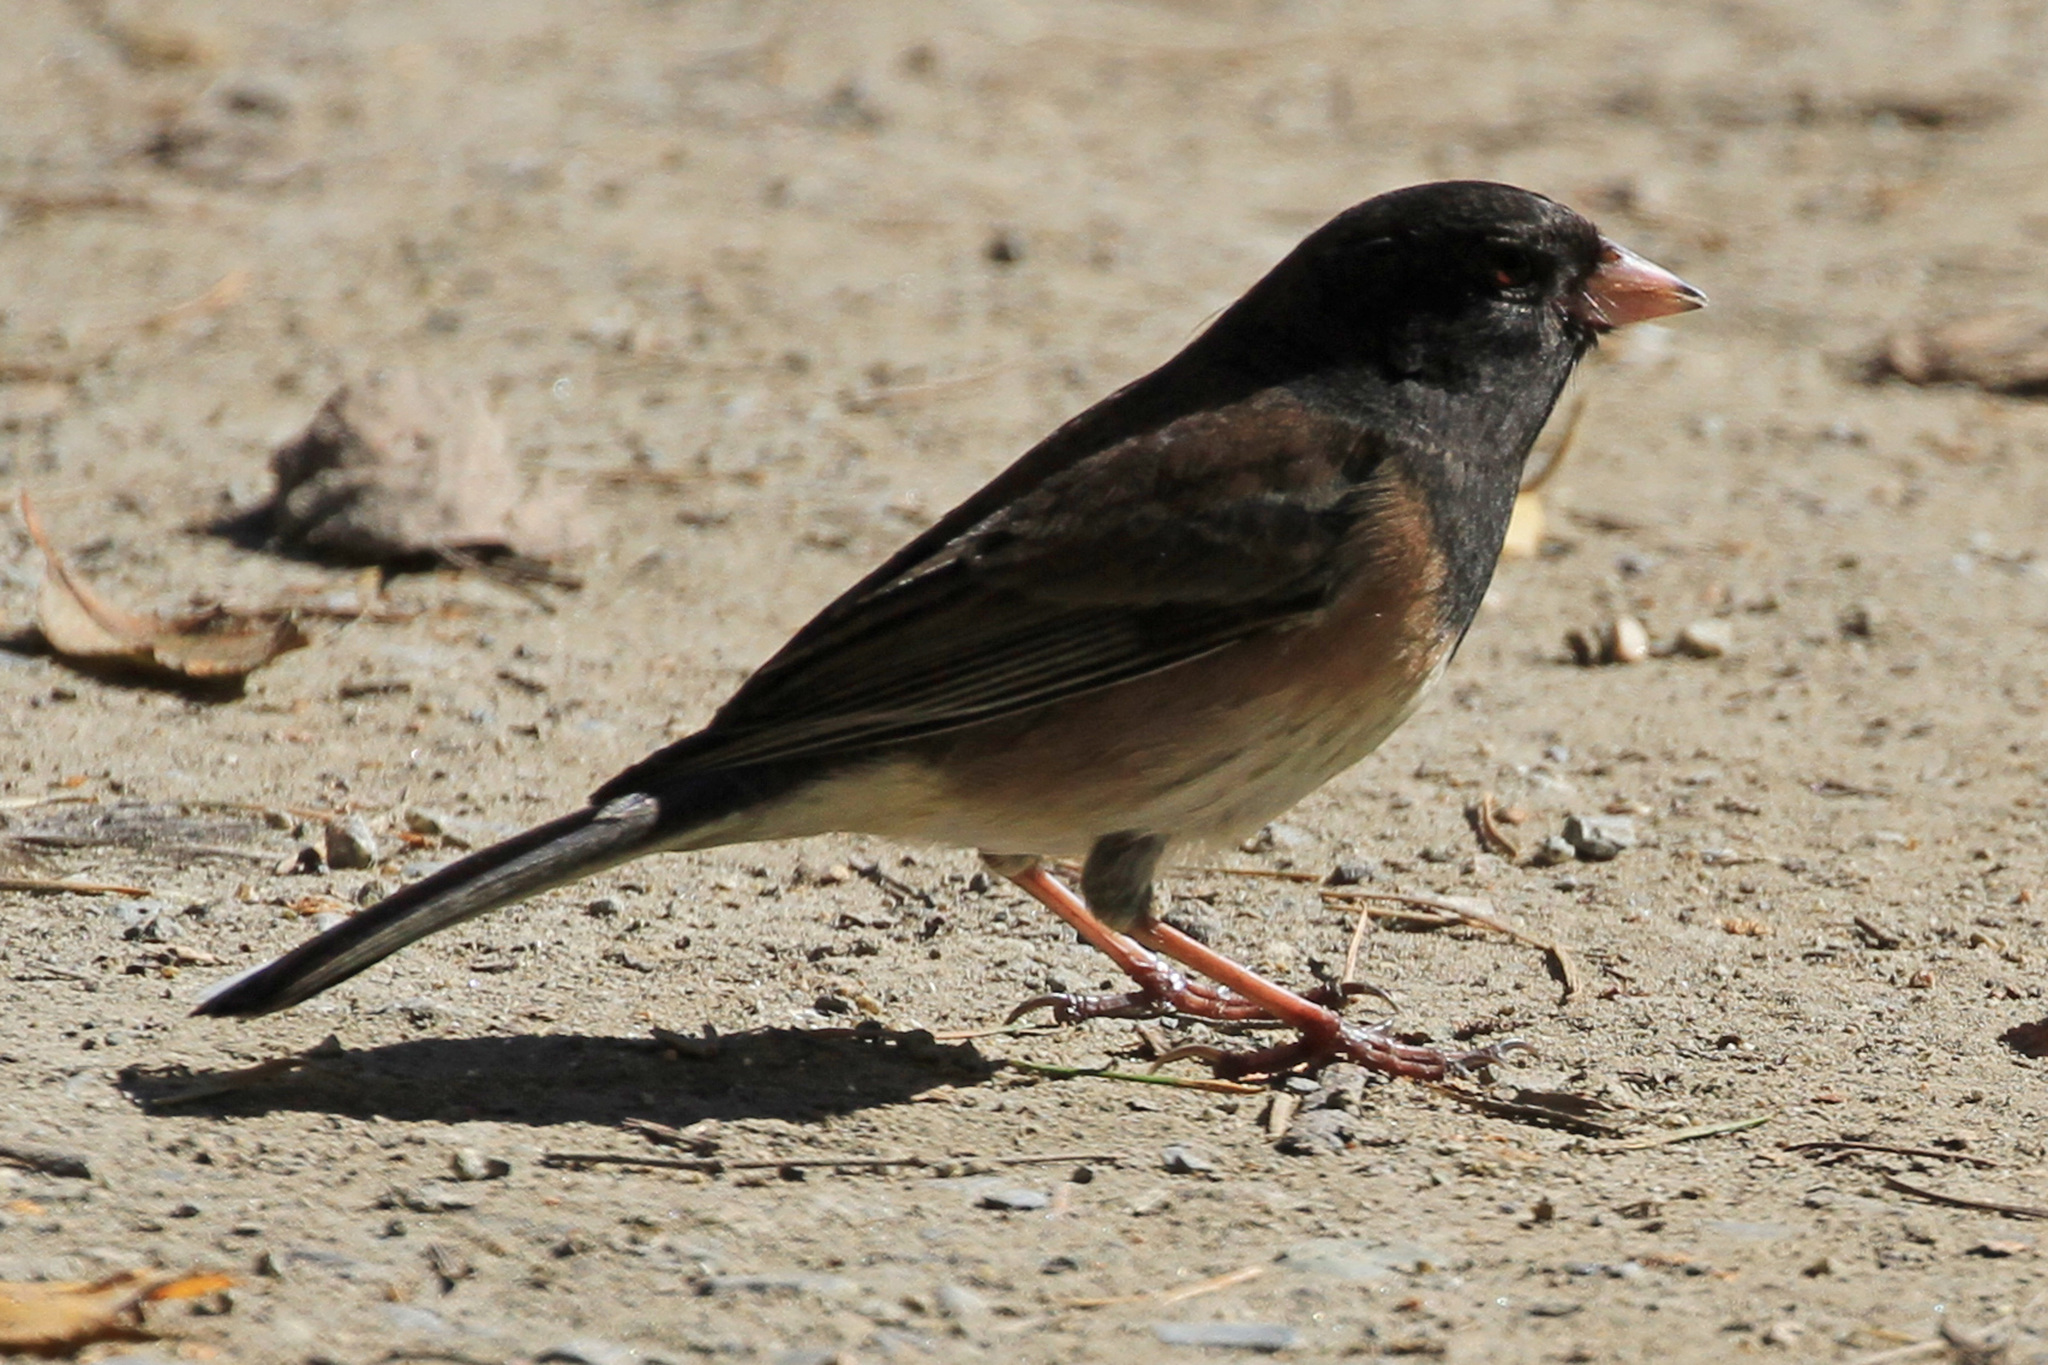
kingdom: Animalia
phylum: Chordata
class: Aves
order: Passeriformes
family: Passerellidae
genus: Junco
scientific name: Junco hyemalis
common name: Dark-eyed junco
